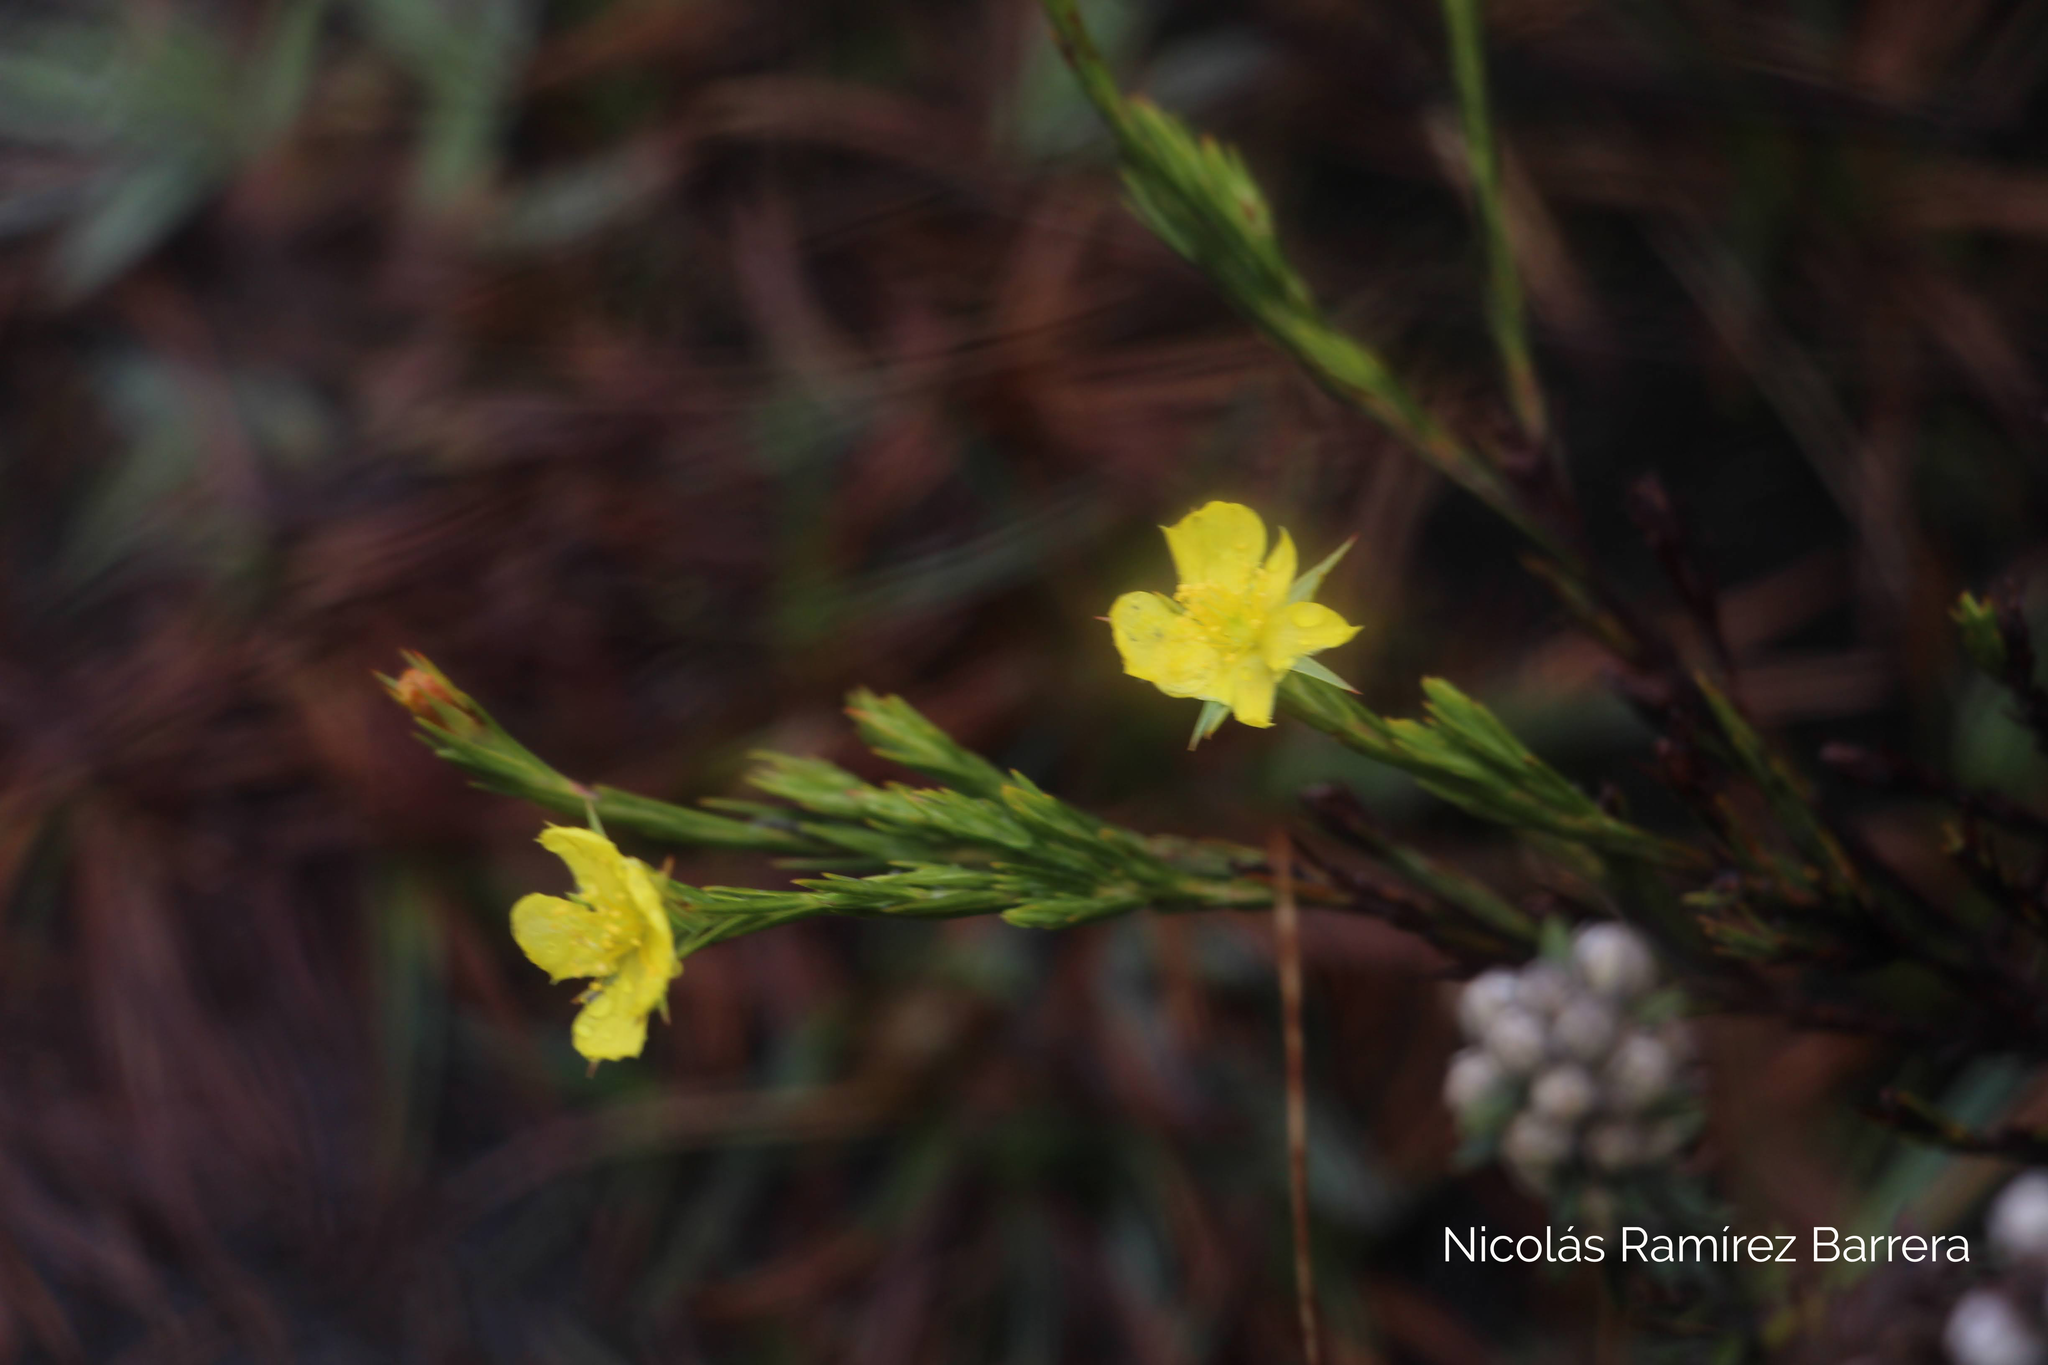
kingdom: Plantae
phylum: Tracheophyta
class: Magnoliopsida
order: Malpighiales
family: Hypericaceae
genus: Hypericum
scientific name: Hypericum strictum
